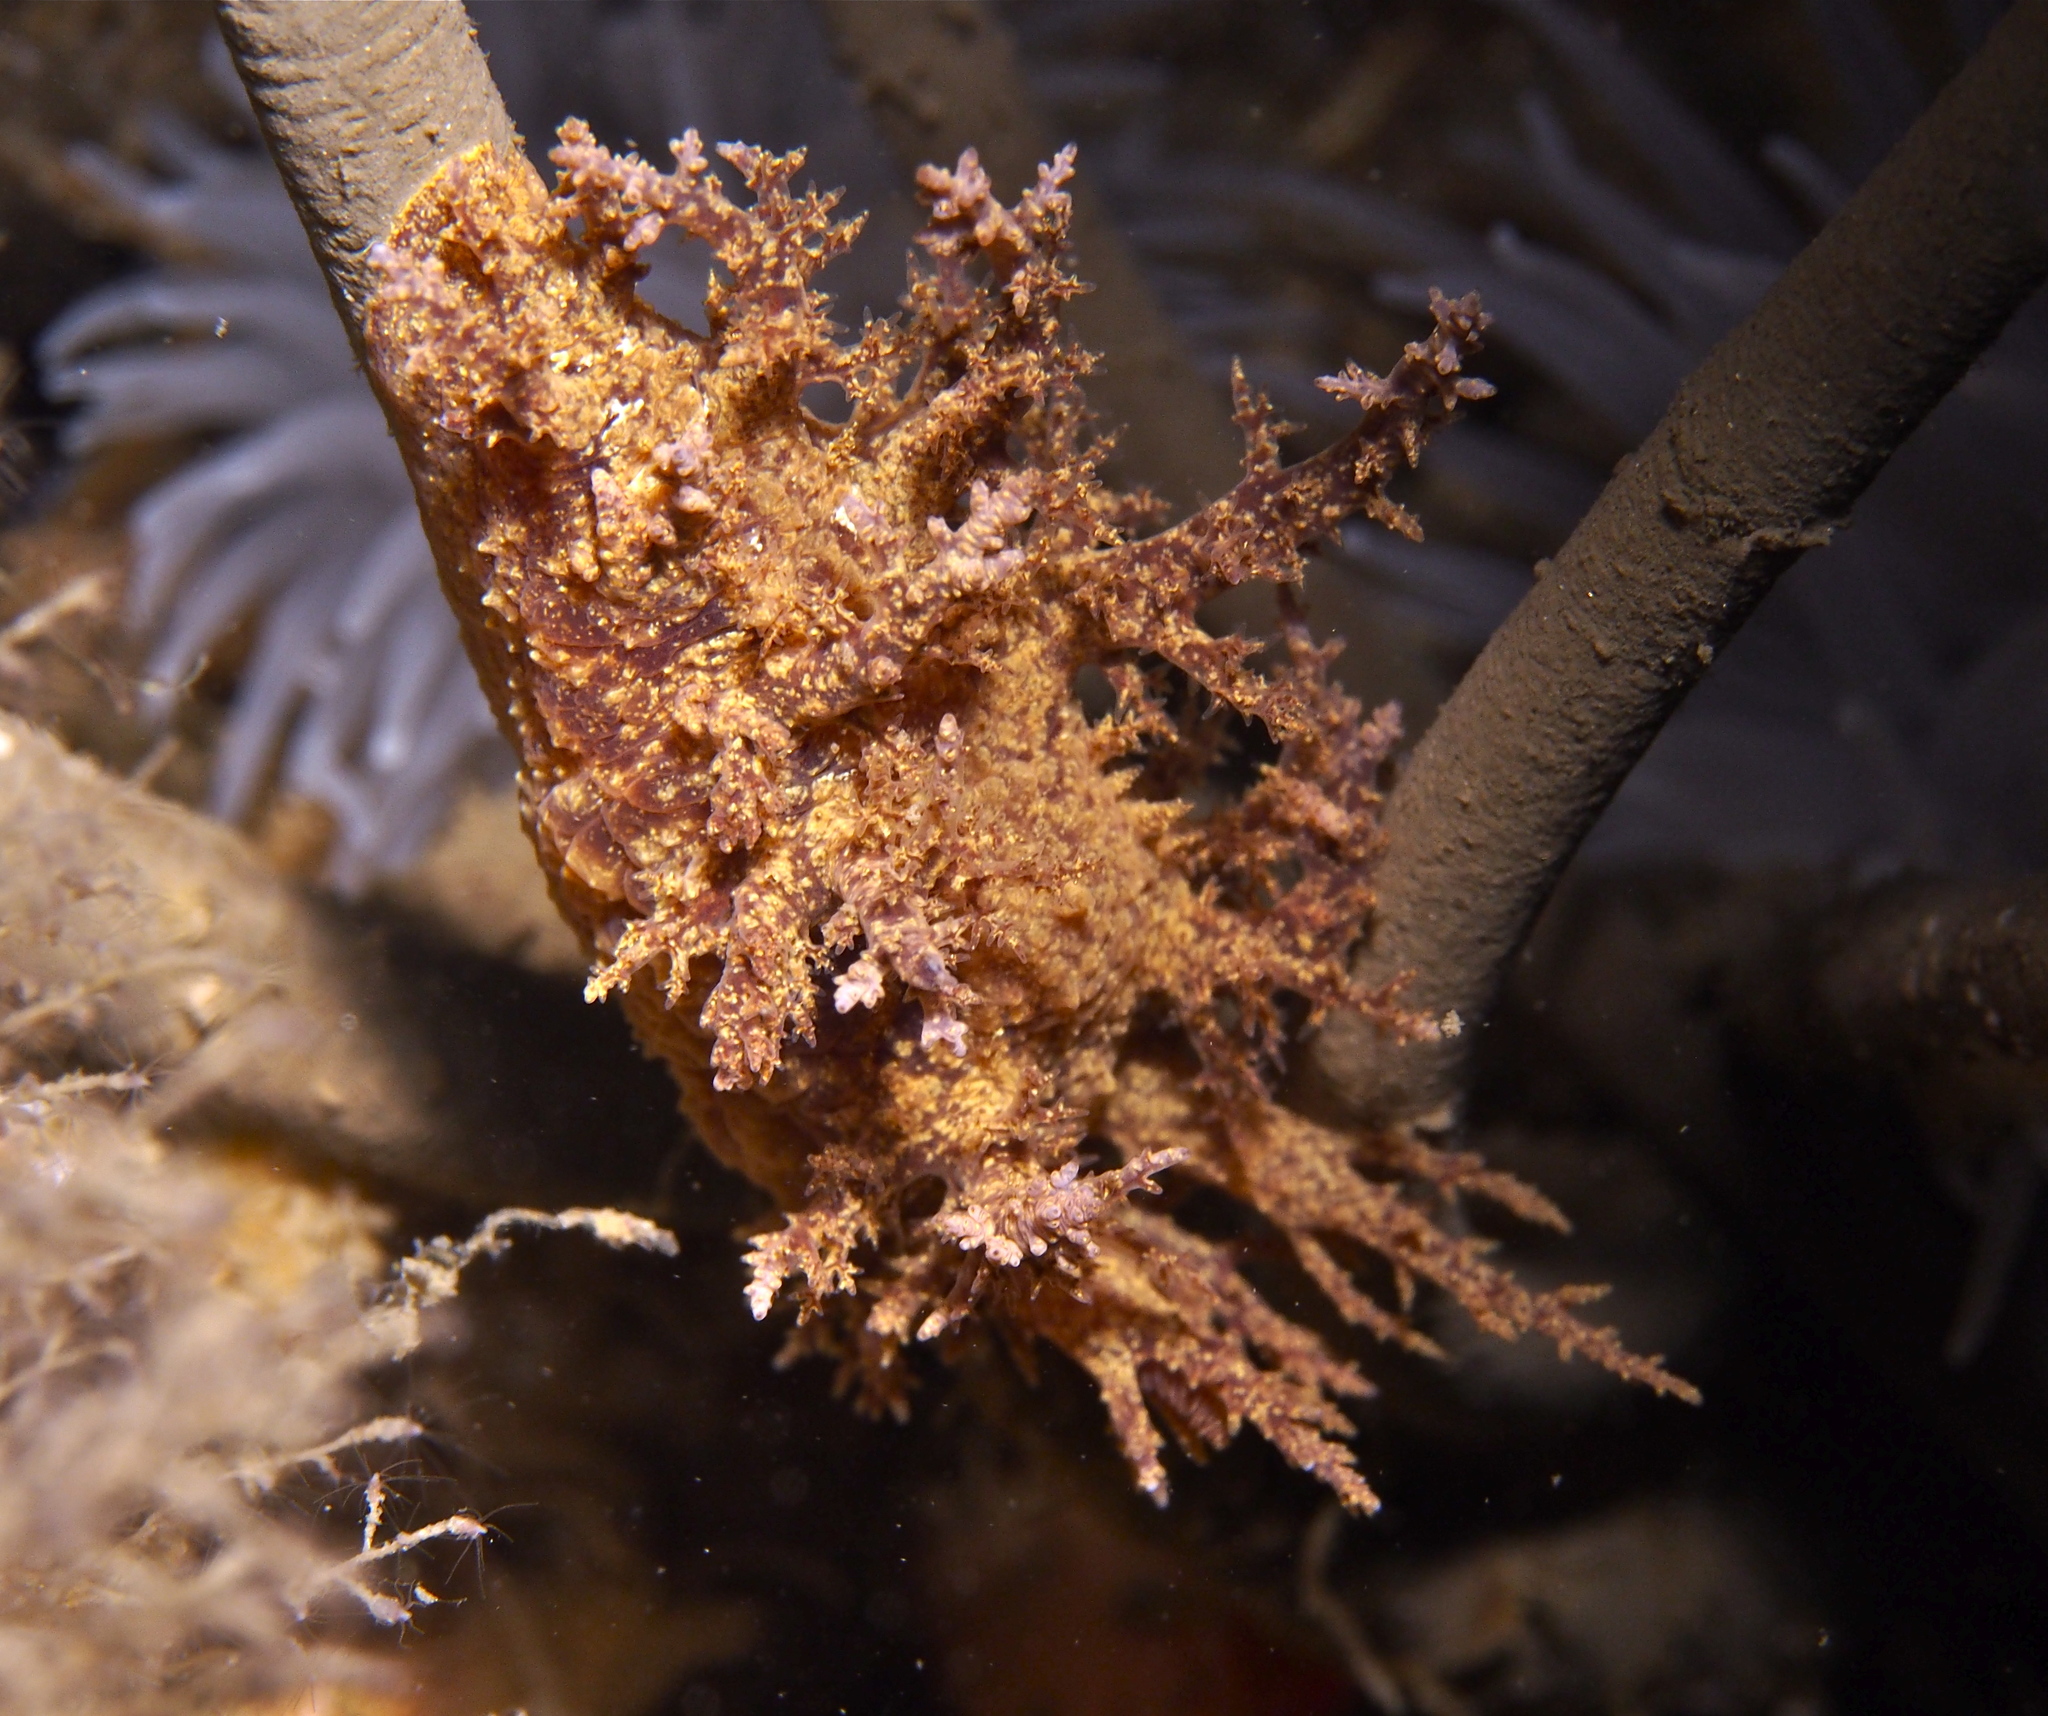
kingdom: Animalia
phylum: Mollusca
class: Gastropoda
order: Nudibranchia
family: Dendronotidae
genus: Dendronotus
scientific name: Dendronotus europaeus
